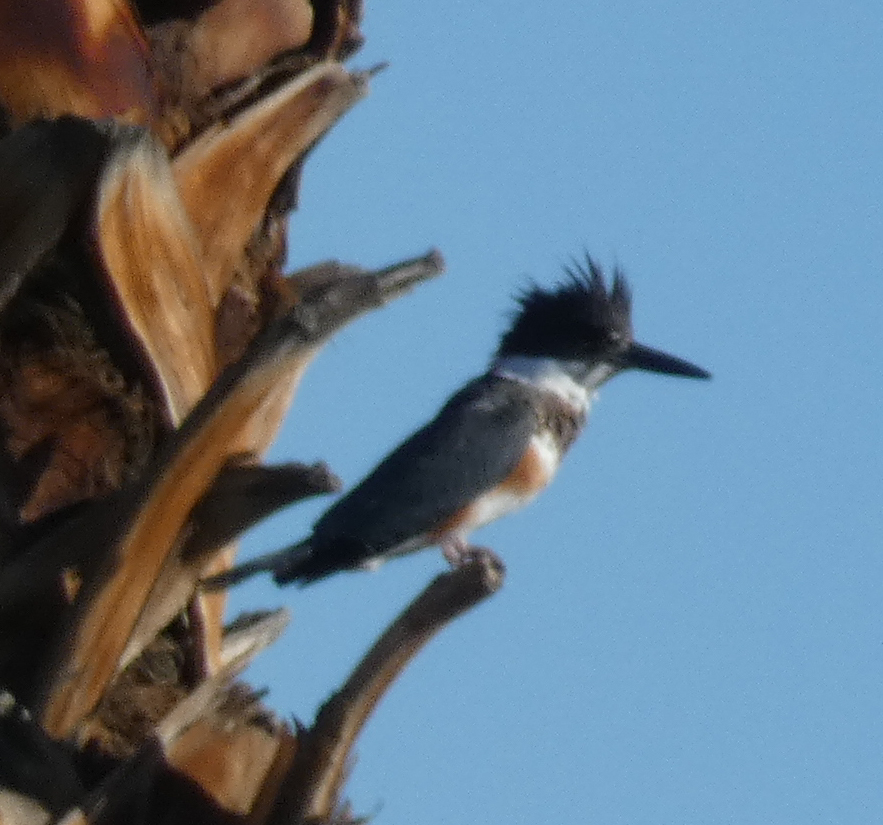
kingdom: Animalia
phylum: Chordata
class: Aves
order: Coraciiformes
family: Alcedinidae
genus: Megaceryle
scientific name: Megaceryle alcyon
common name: Belted kingfisher
